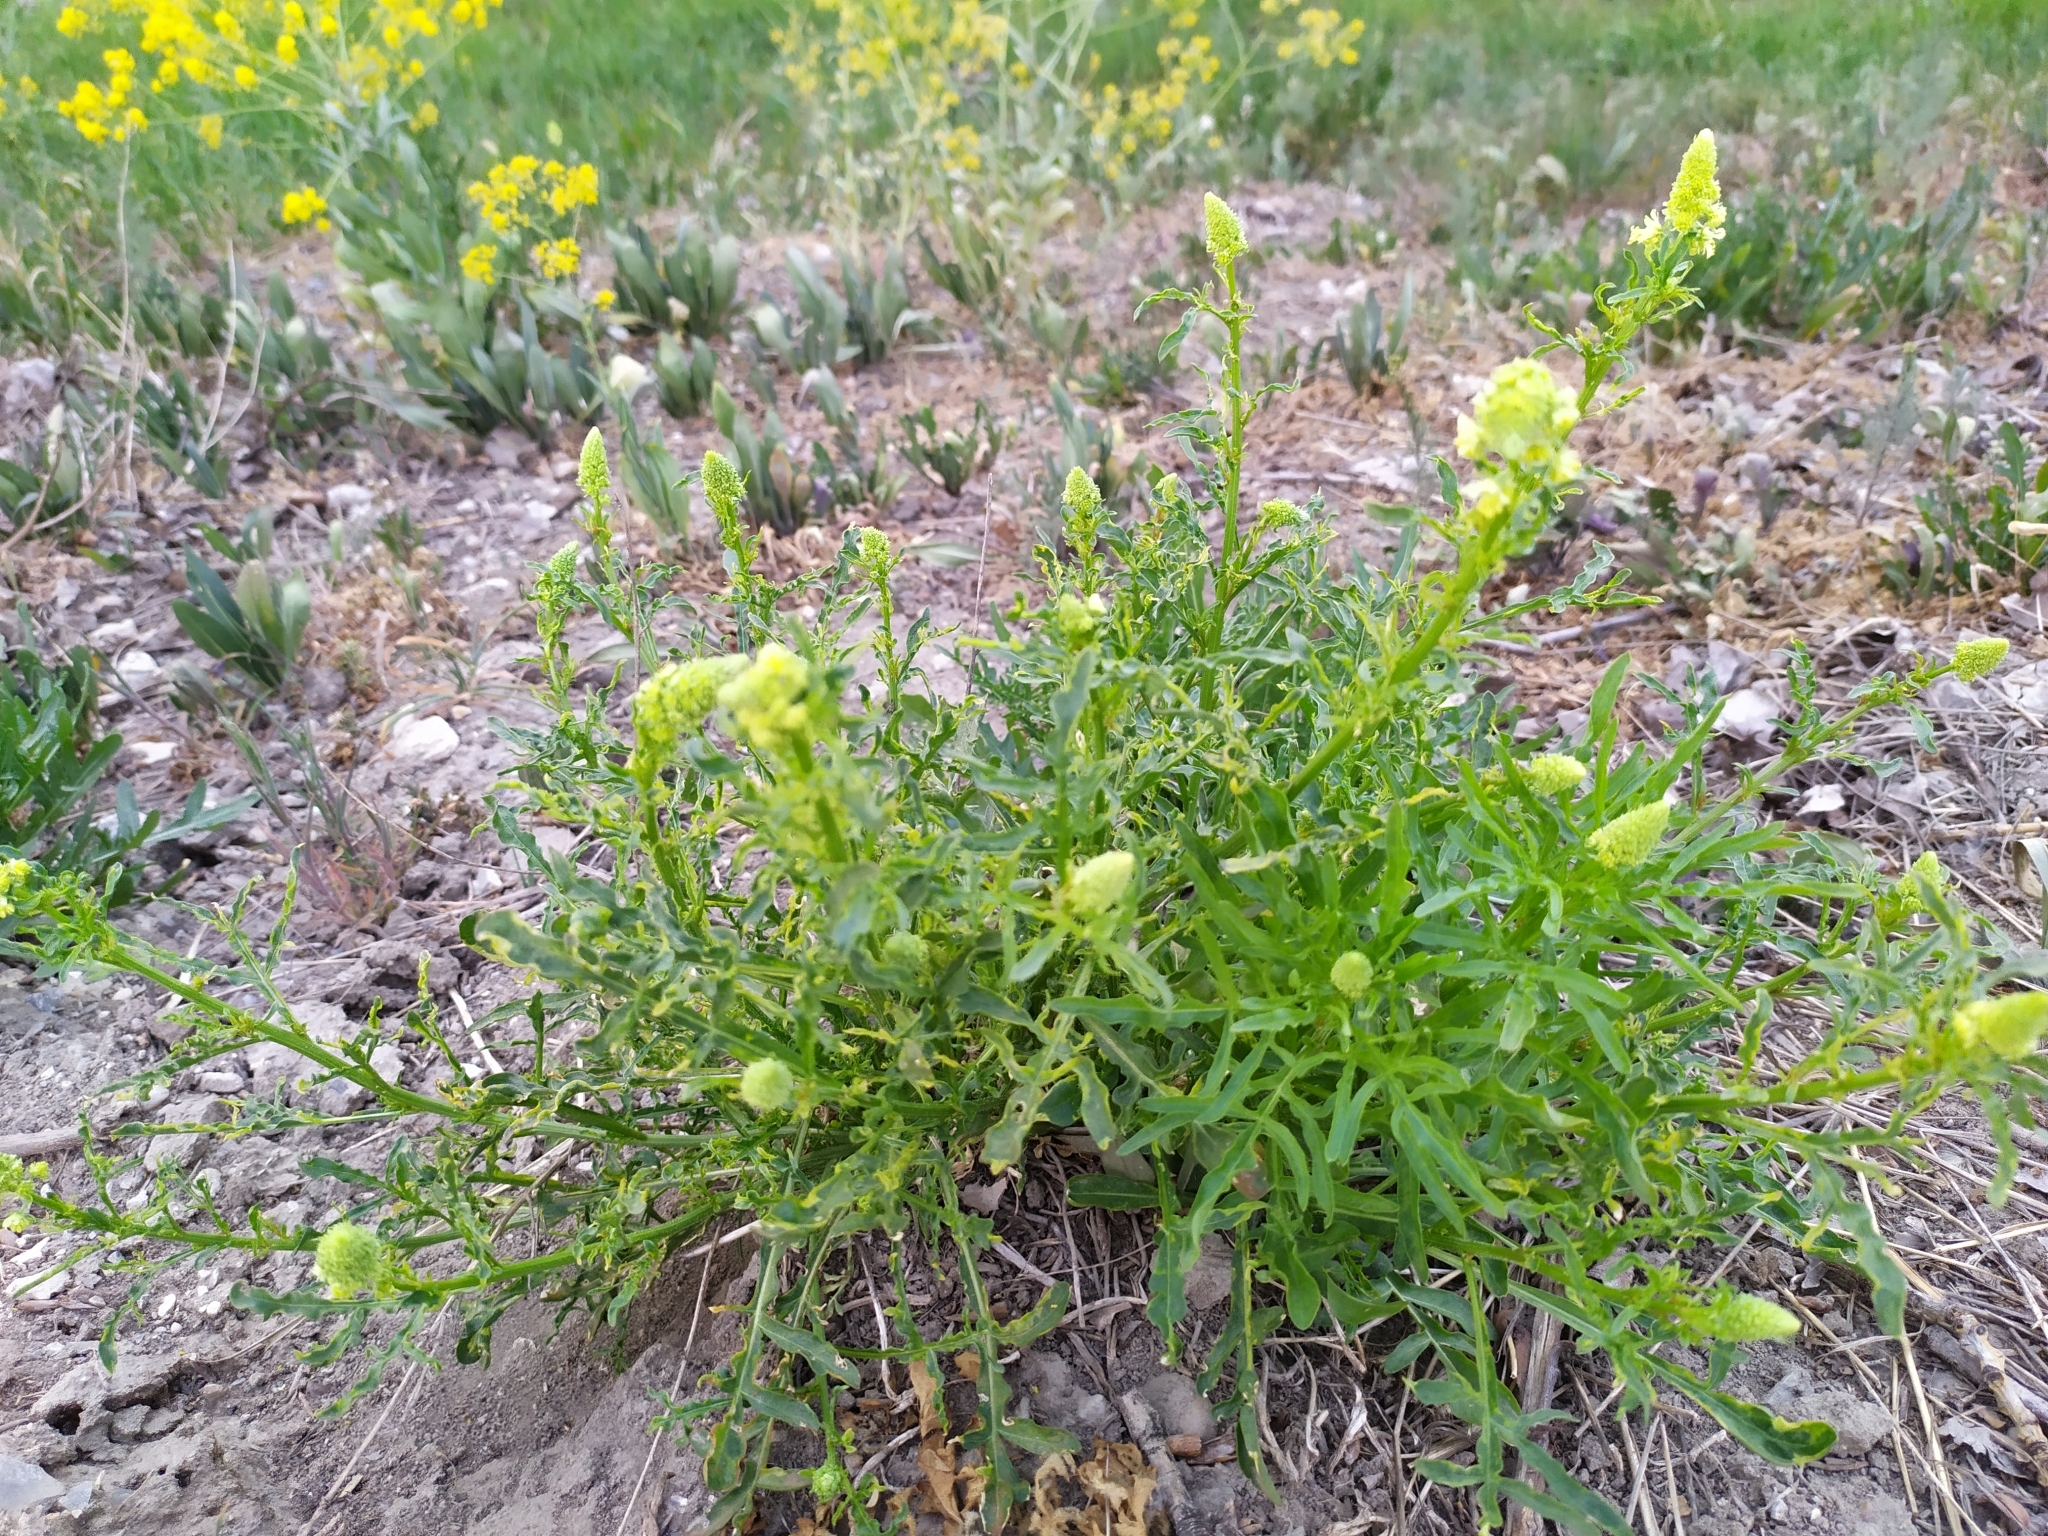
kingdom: Plantae
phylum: Tracheophyta
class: Magnoliopsida
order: Brassicales
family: Resedaceae
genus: Reseda
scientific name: Reseda lutea
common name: Wild mignonette
